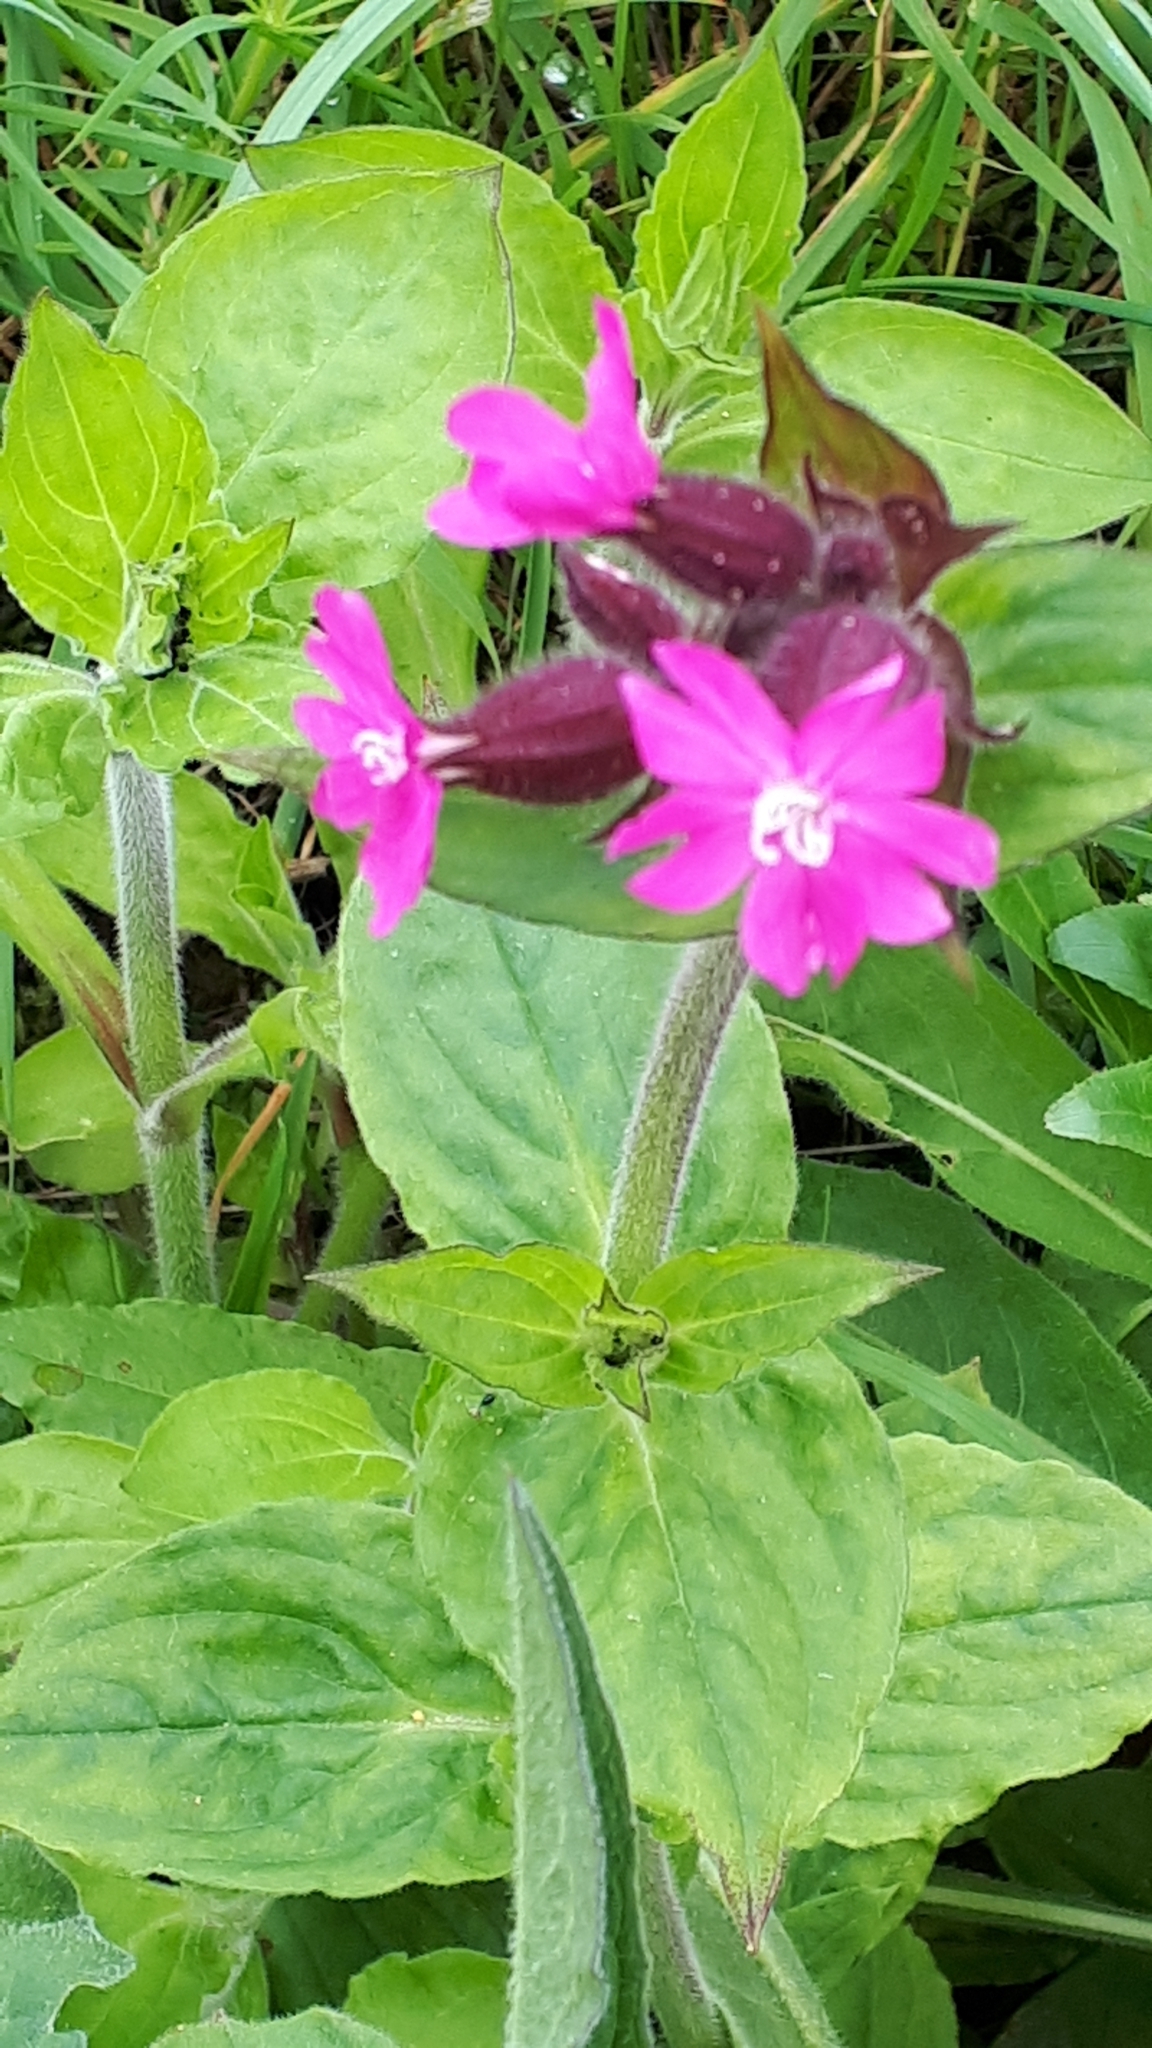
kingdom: Plantae
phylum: Tracheophyta
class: Magnoliopsida
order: Caryophyllales
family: Caryophyllaceae
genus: Silene
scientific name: Silene dioica
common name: Red campion
